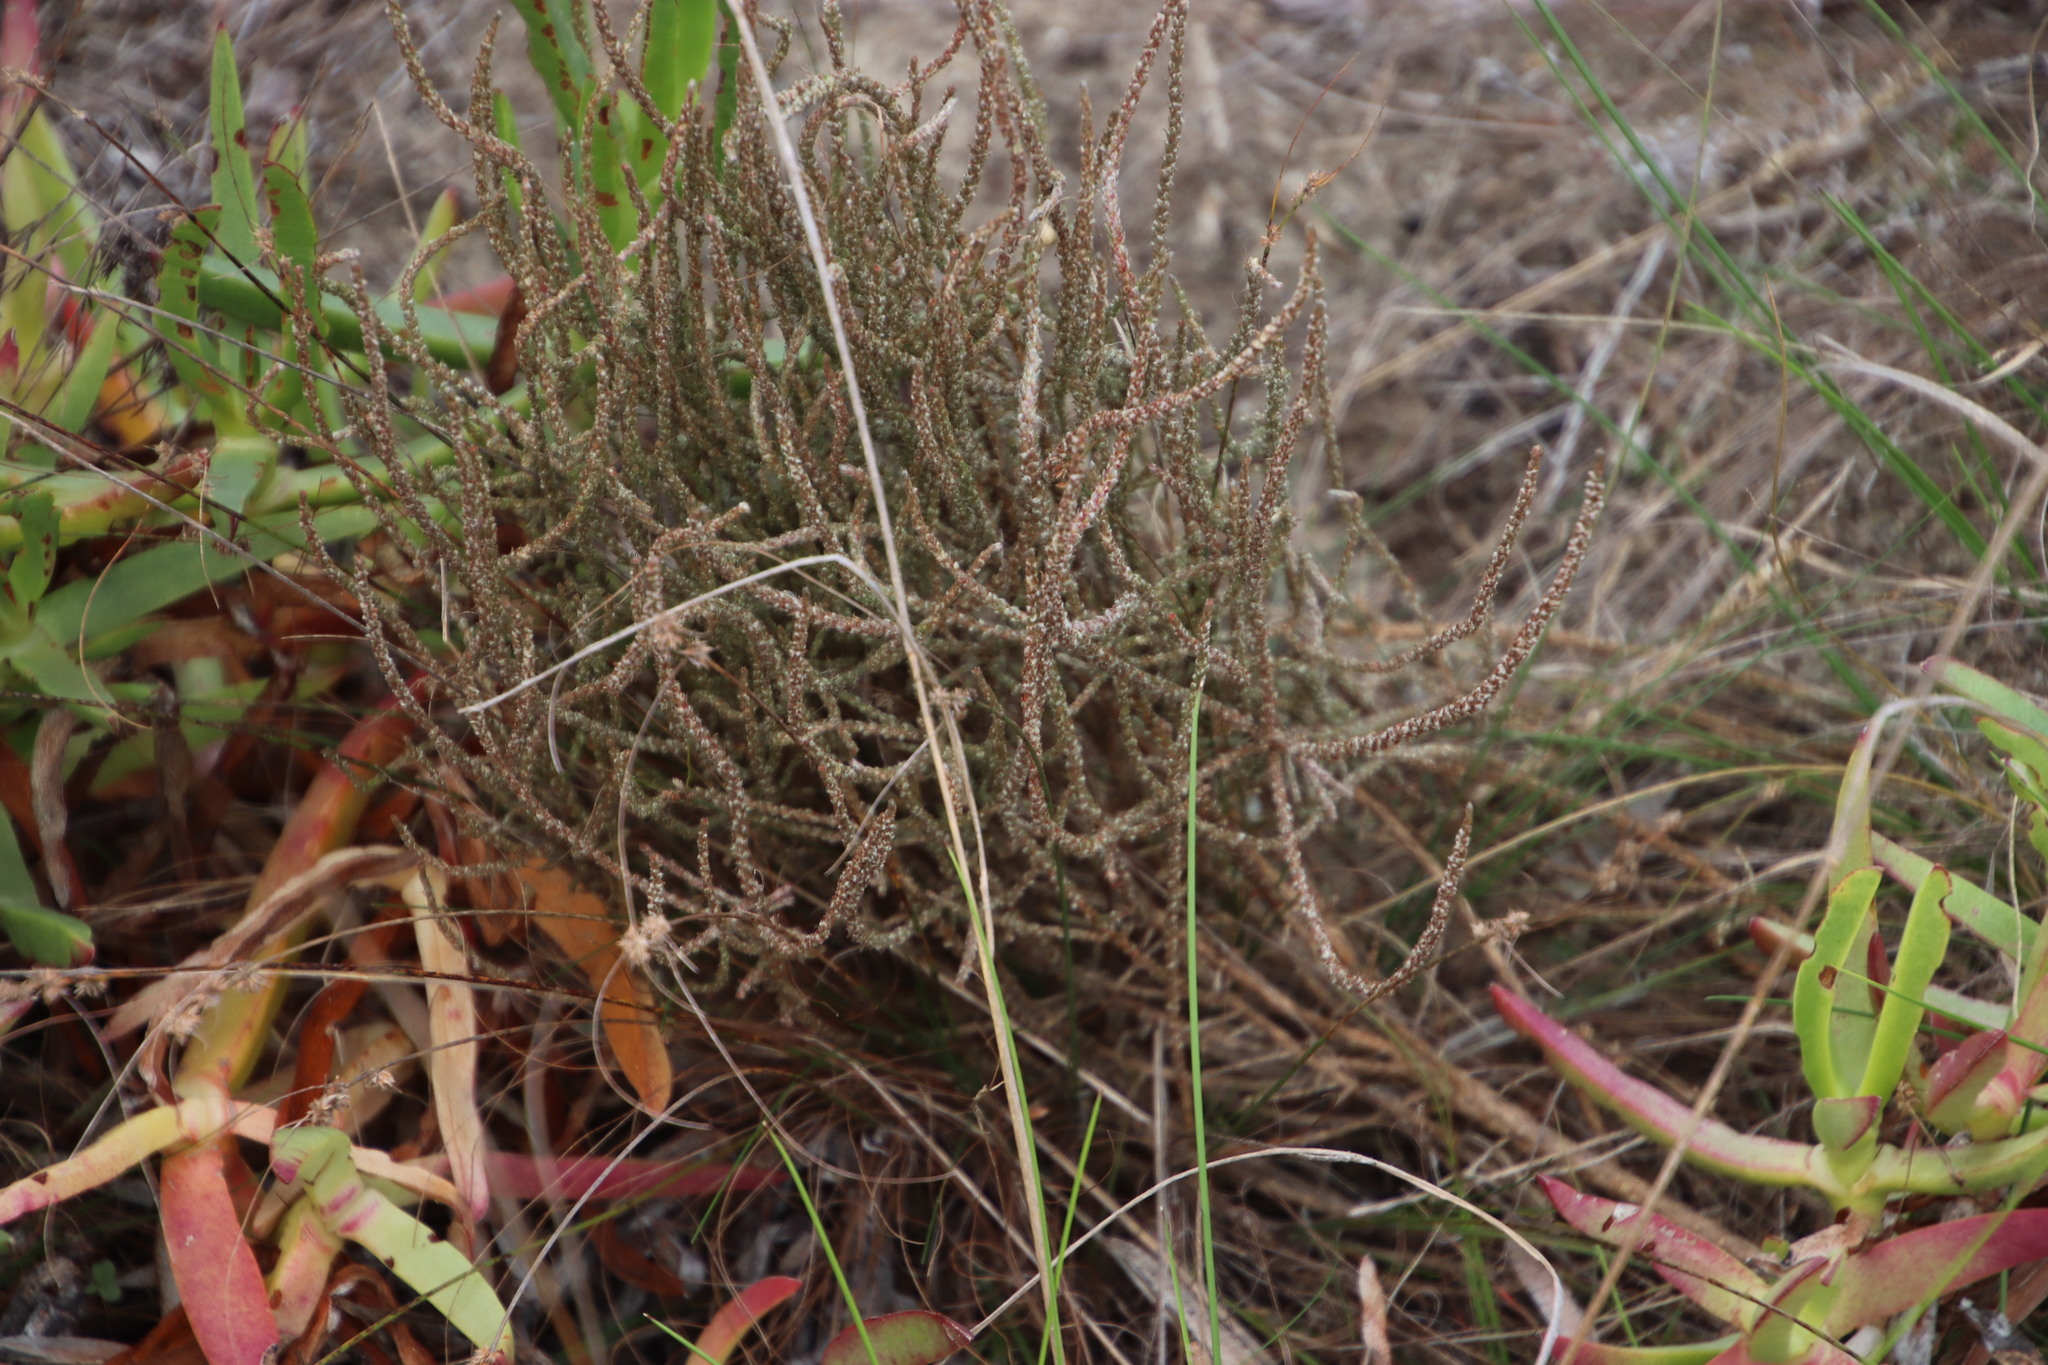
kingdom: Plantae
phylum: Tracheophyta
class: Magnoliopsida
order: Caryophyllales
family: Molluginaceae
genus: Polpoda
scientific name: Polpoda capensis
